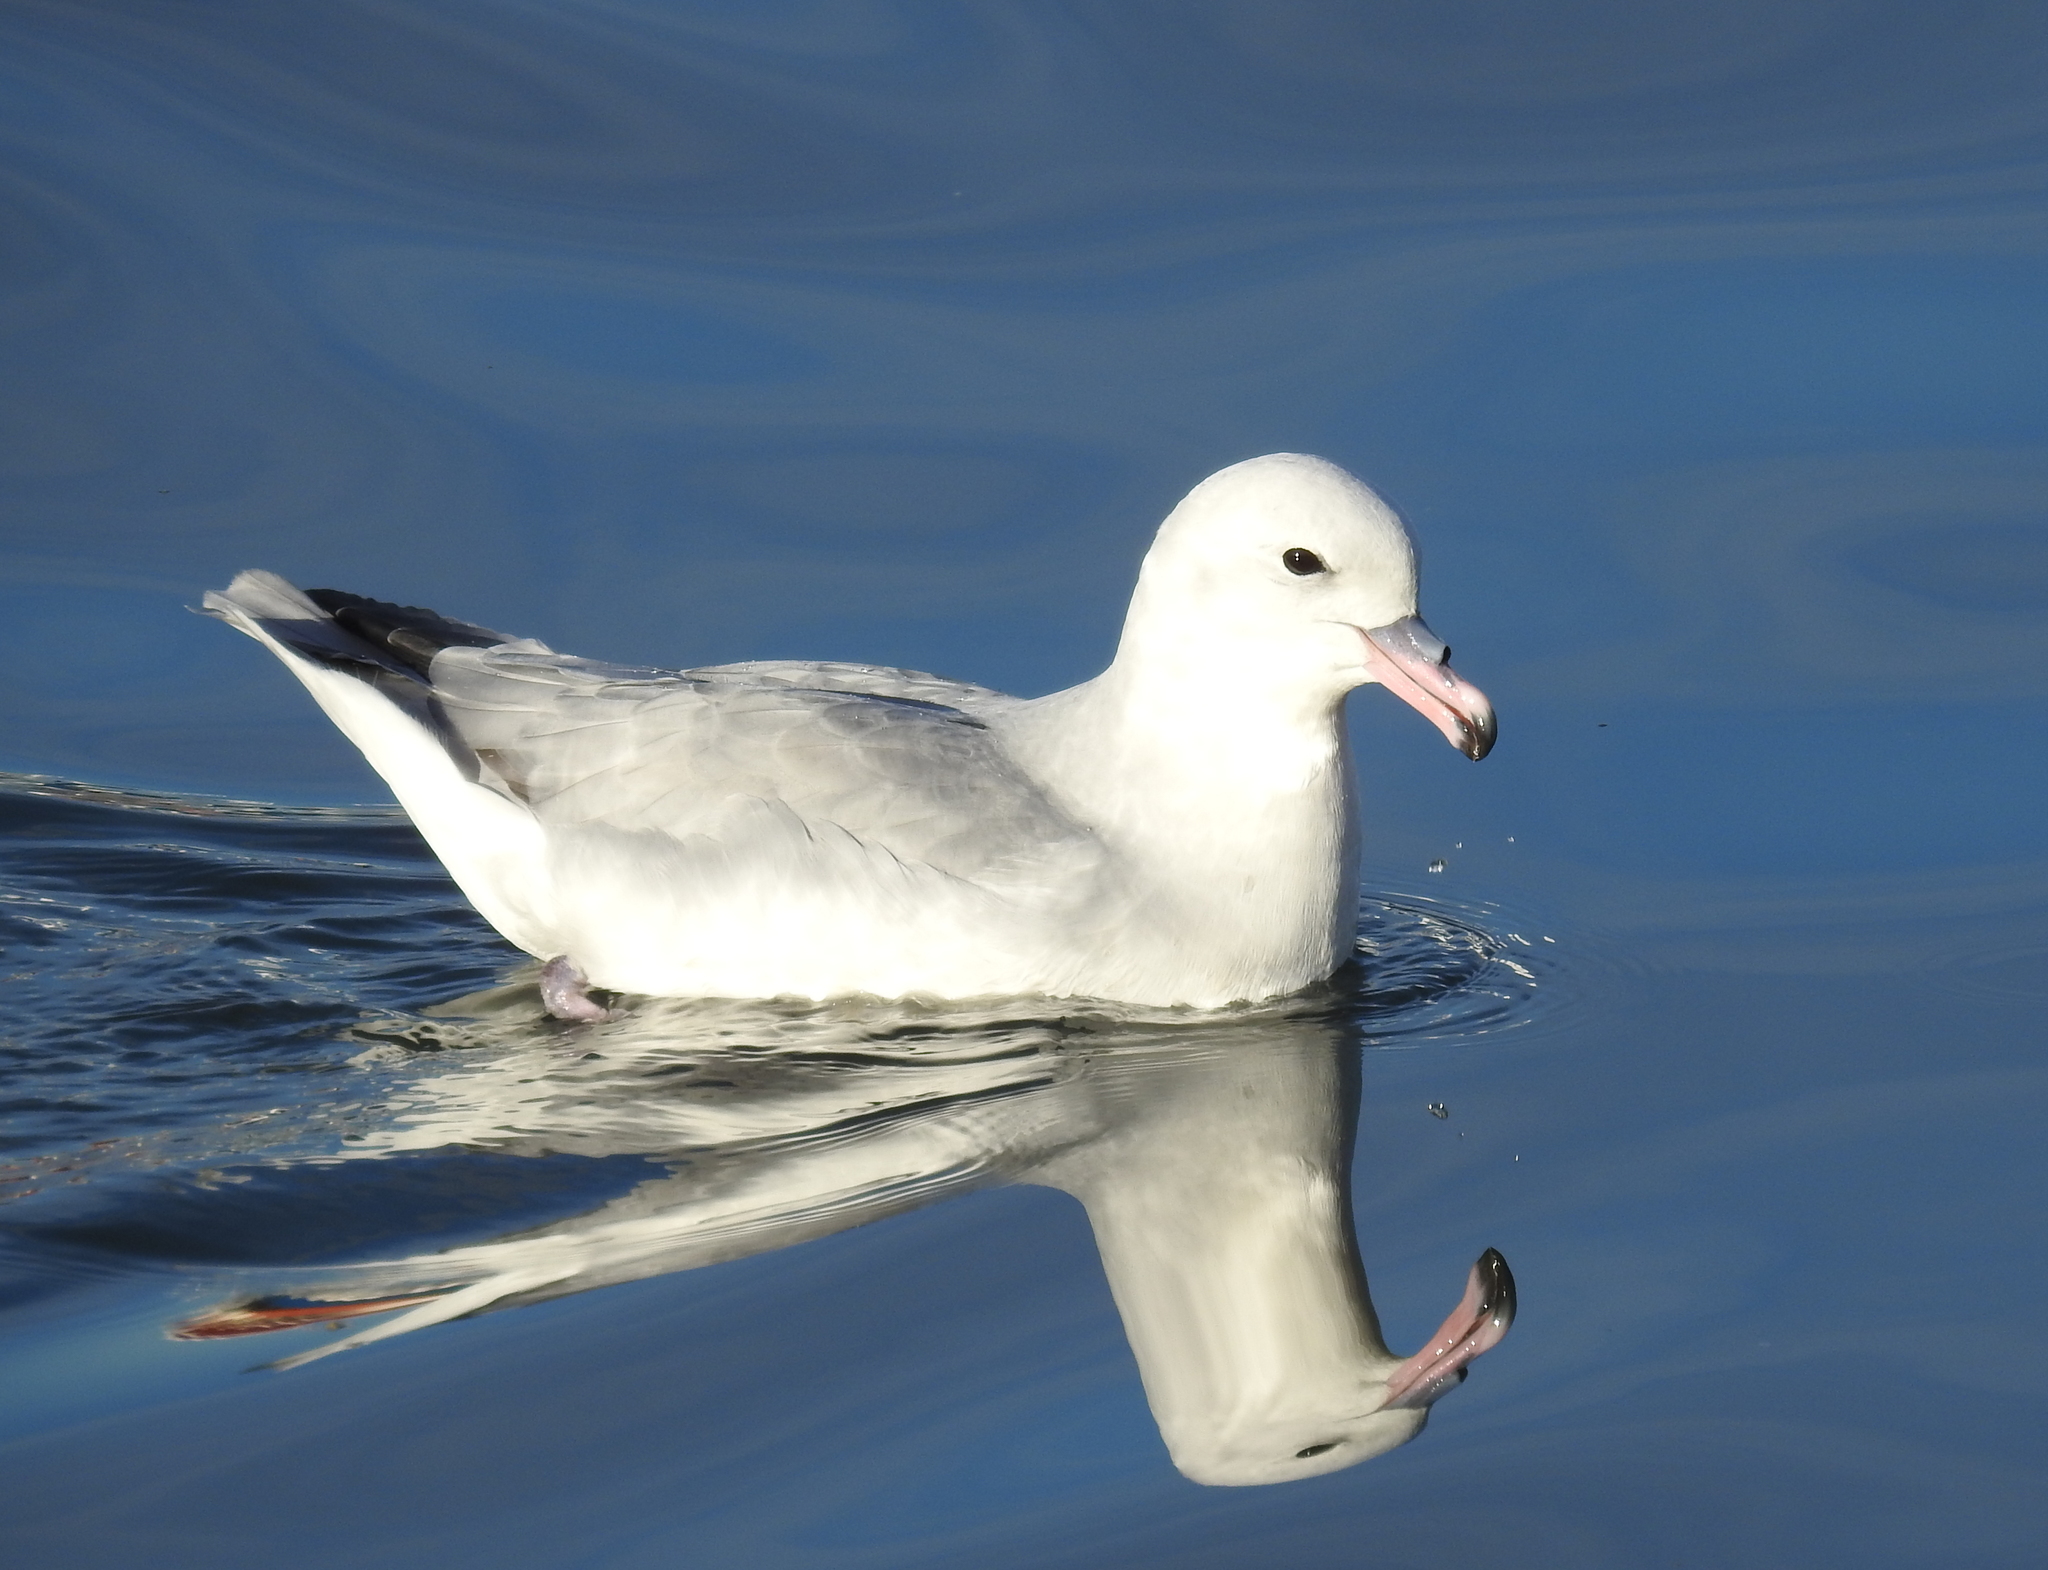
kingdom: Animalia
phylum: Chordata
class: Aves
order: Procellariiformes
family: Procellariidae
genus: Fulmarus
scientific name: Fulmarus glacialoides
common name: Southern fulmar
